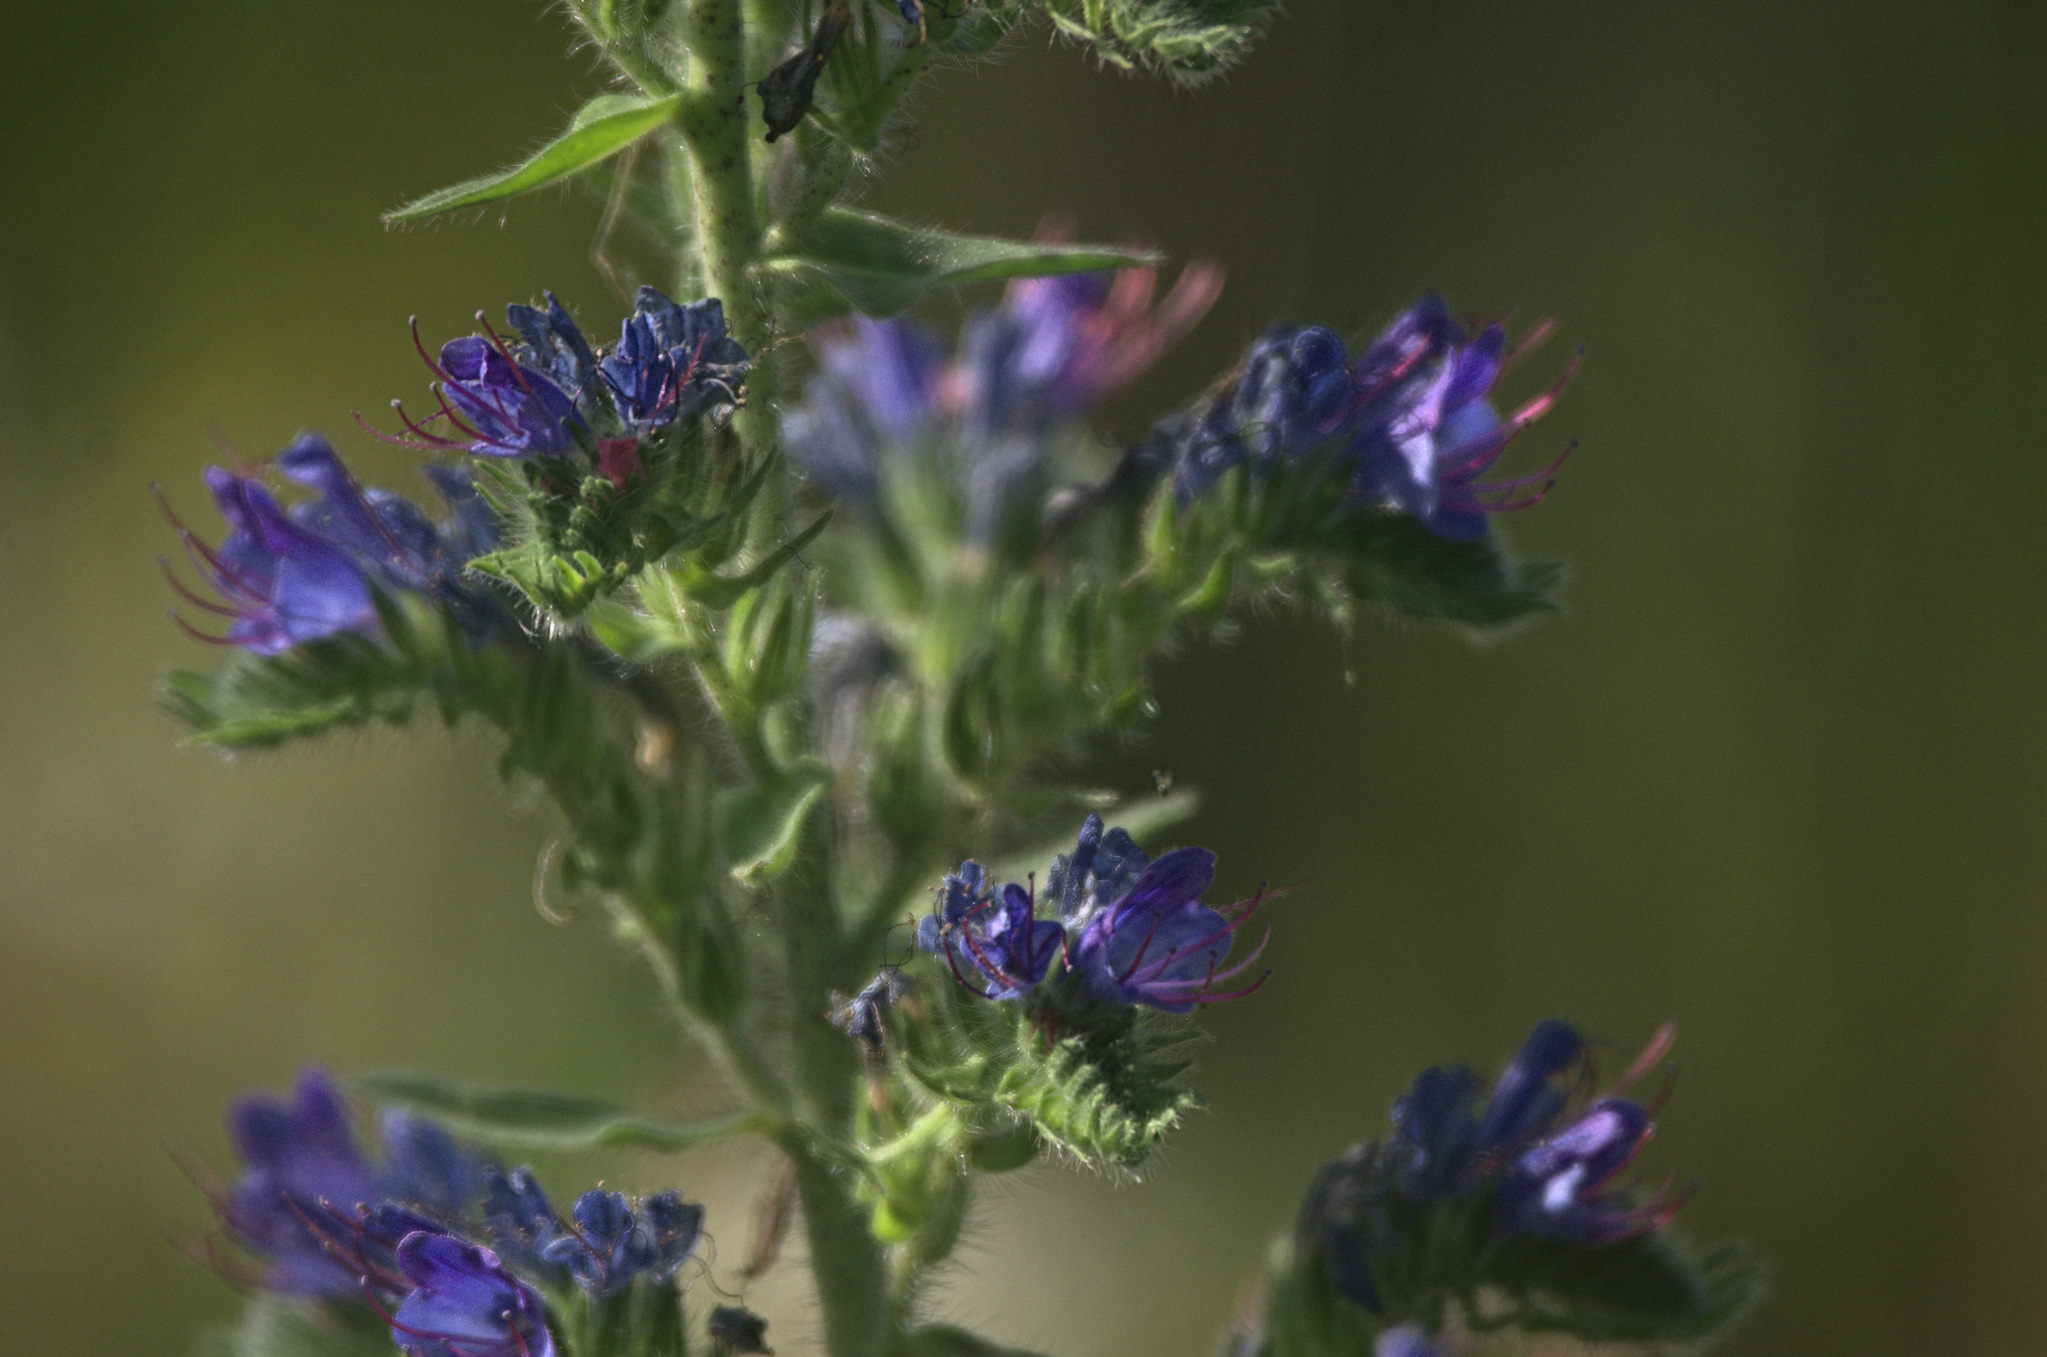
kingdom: Plantae
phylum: Tracheophyta
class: Magnoliopsida
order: Boraginales
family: Boraginaceae
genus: Echium
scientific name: Echium vulgare
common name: Common viper's bugloss
